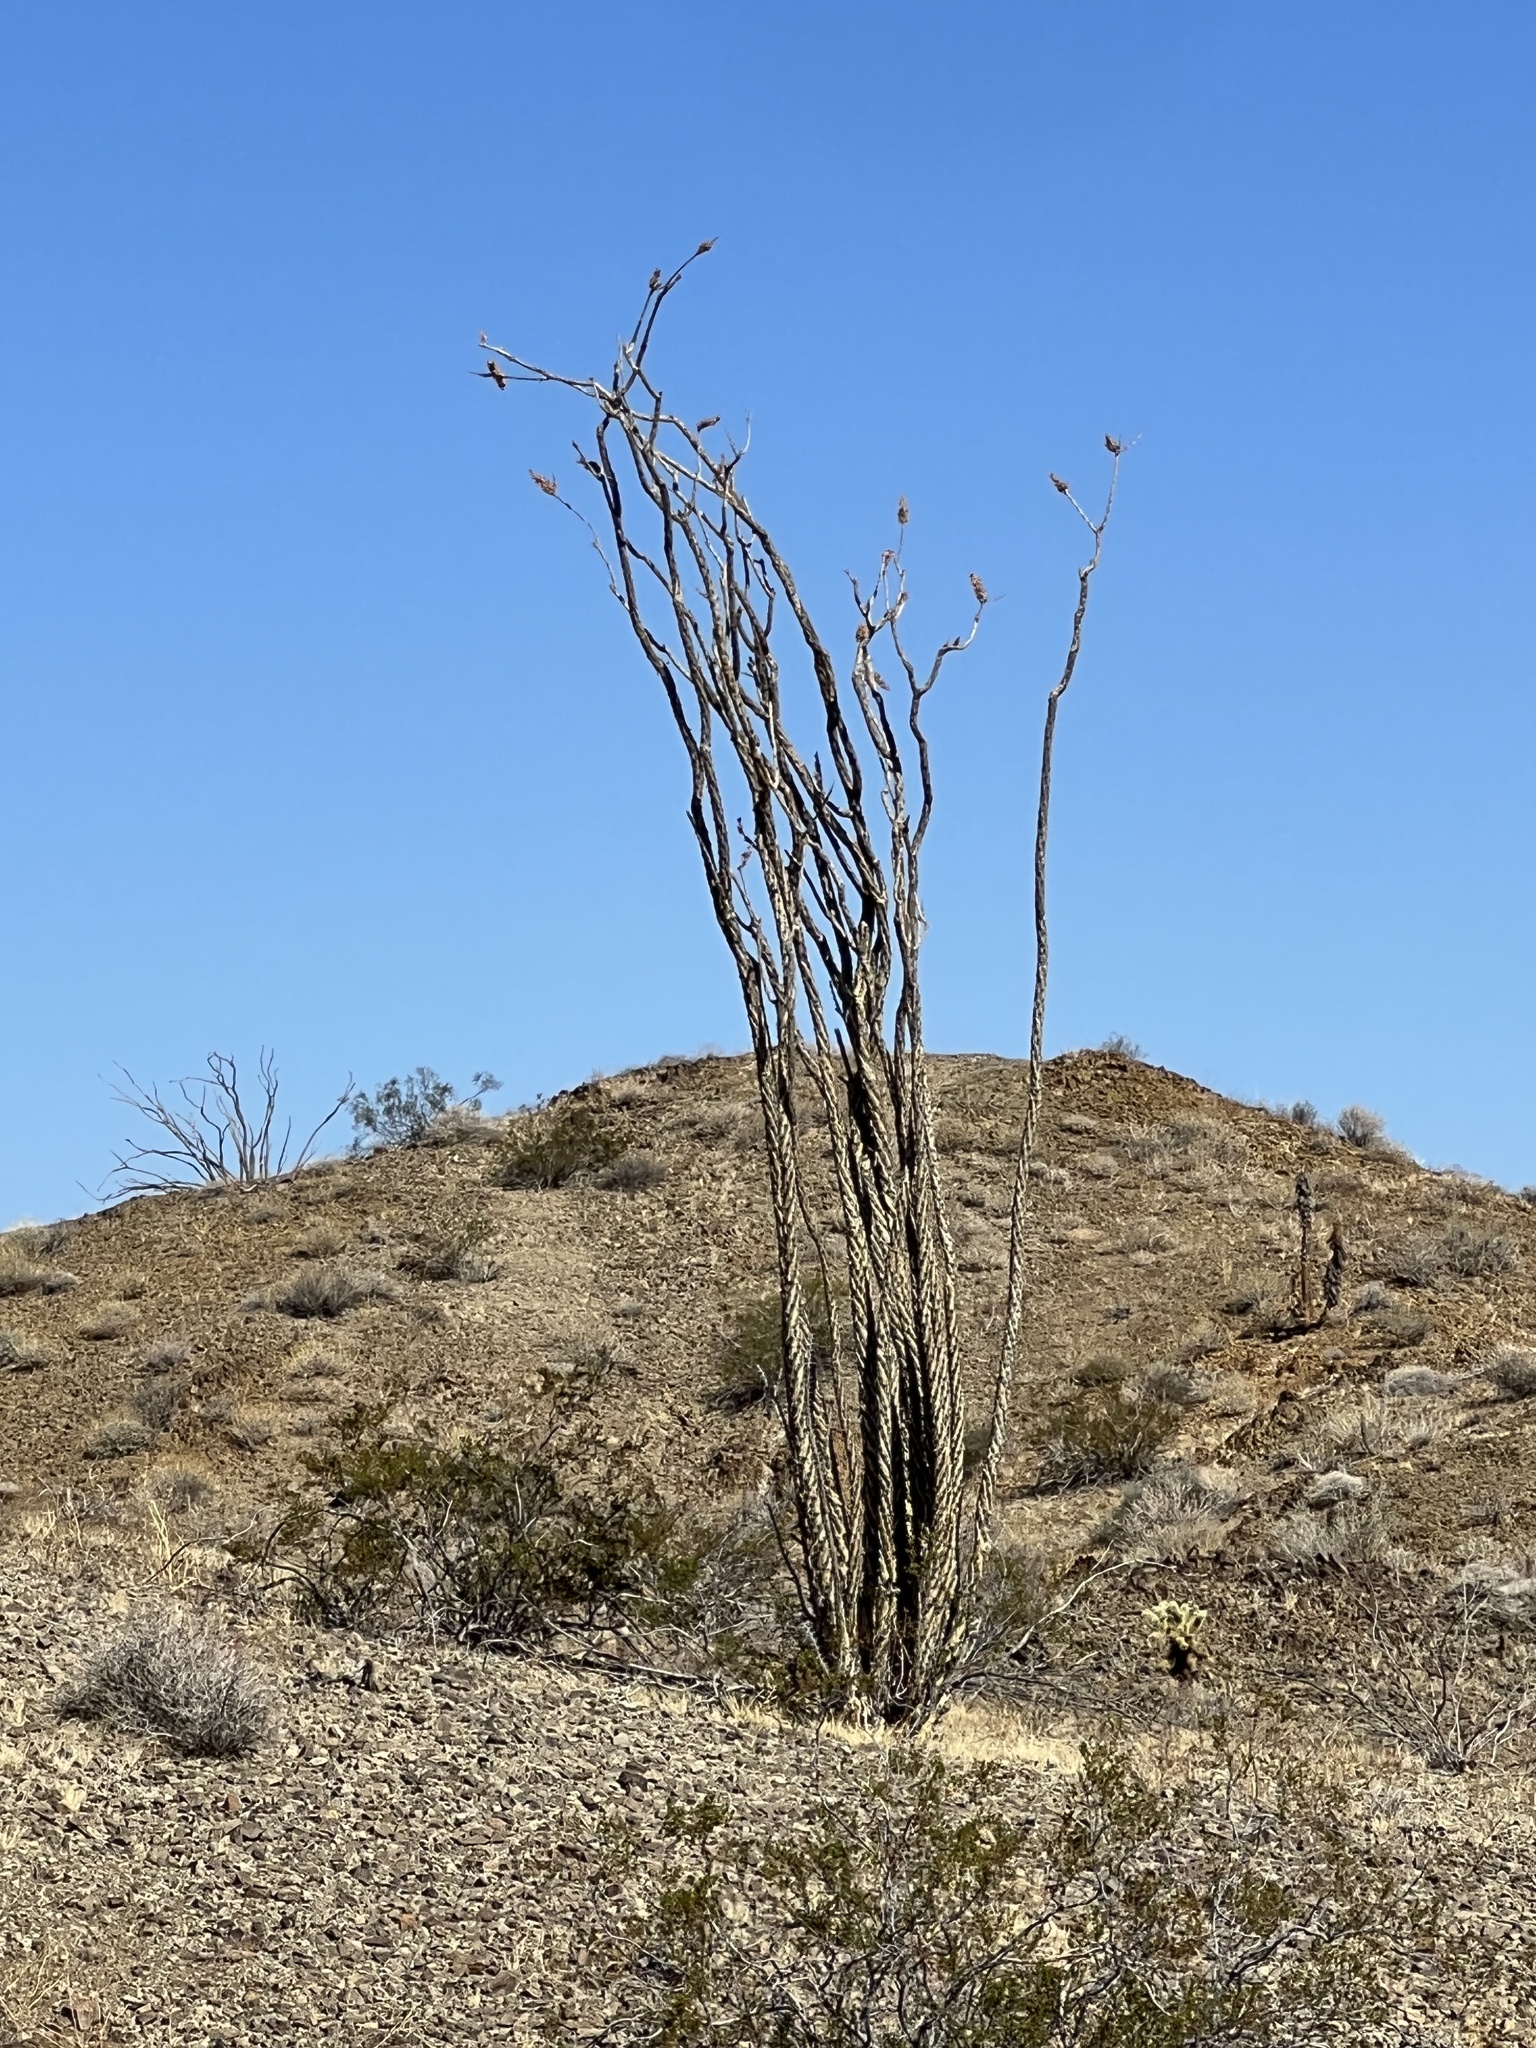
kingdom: Plantae
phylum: Tracheophyta
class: Magnoliopsida
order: Ericales
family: Fouquieriaceae
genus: Fouquieria
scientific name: Fouquieria splendens
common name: Vine-cactus
